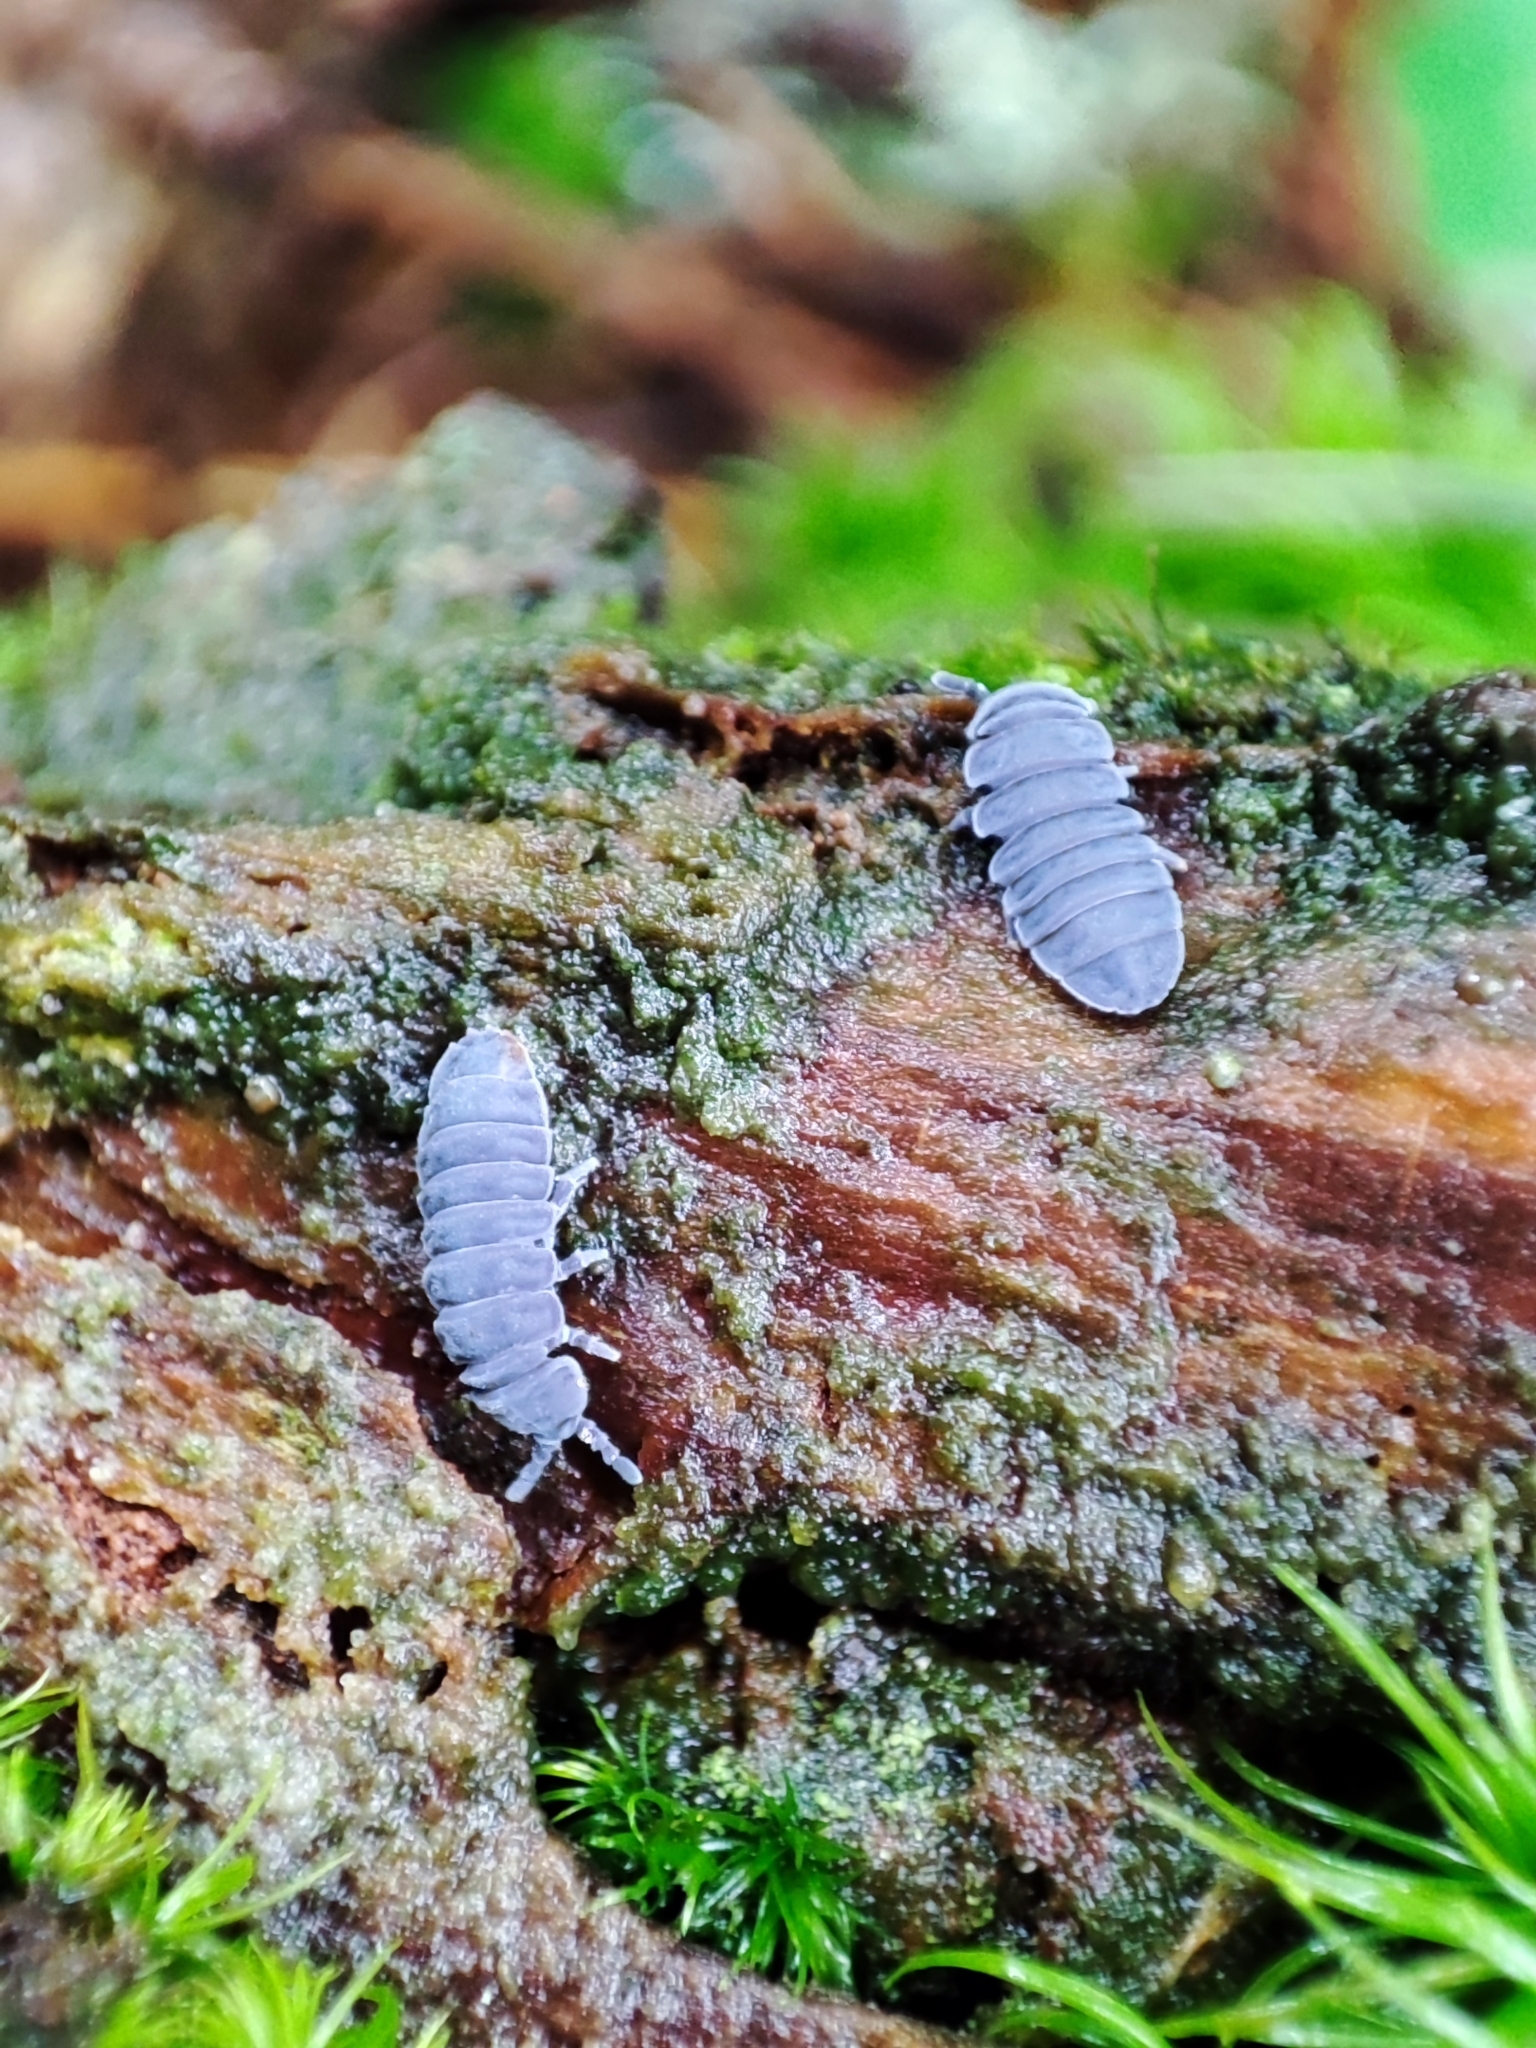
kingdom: Animalia
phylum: Arthropoda
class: Collembola
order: Poduromorpha
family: Onychiuridae
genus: Tetrodontophora
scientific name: Tetrodontophora bielanensis
